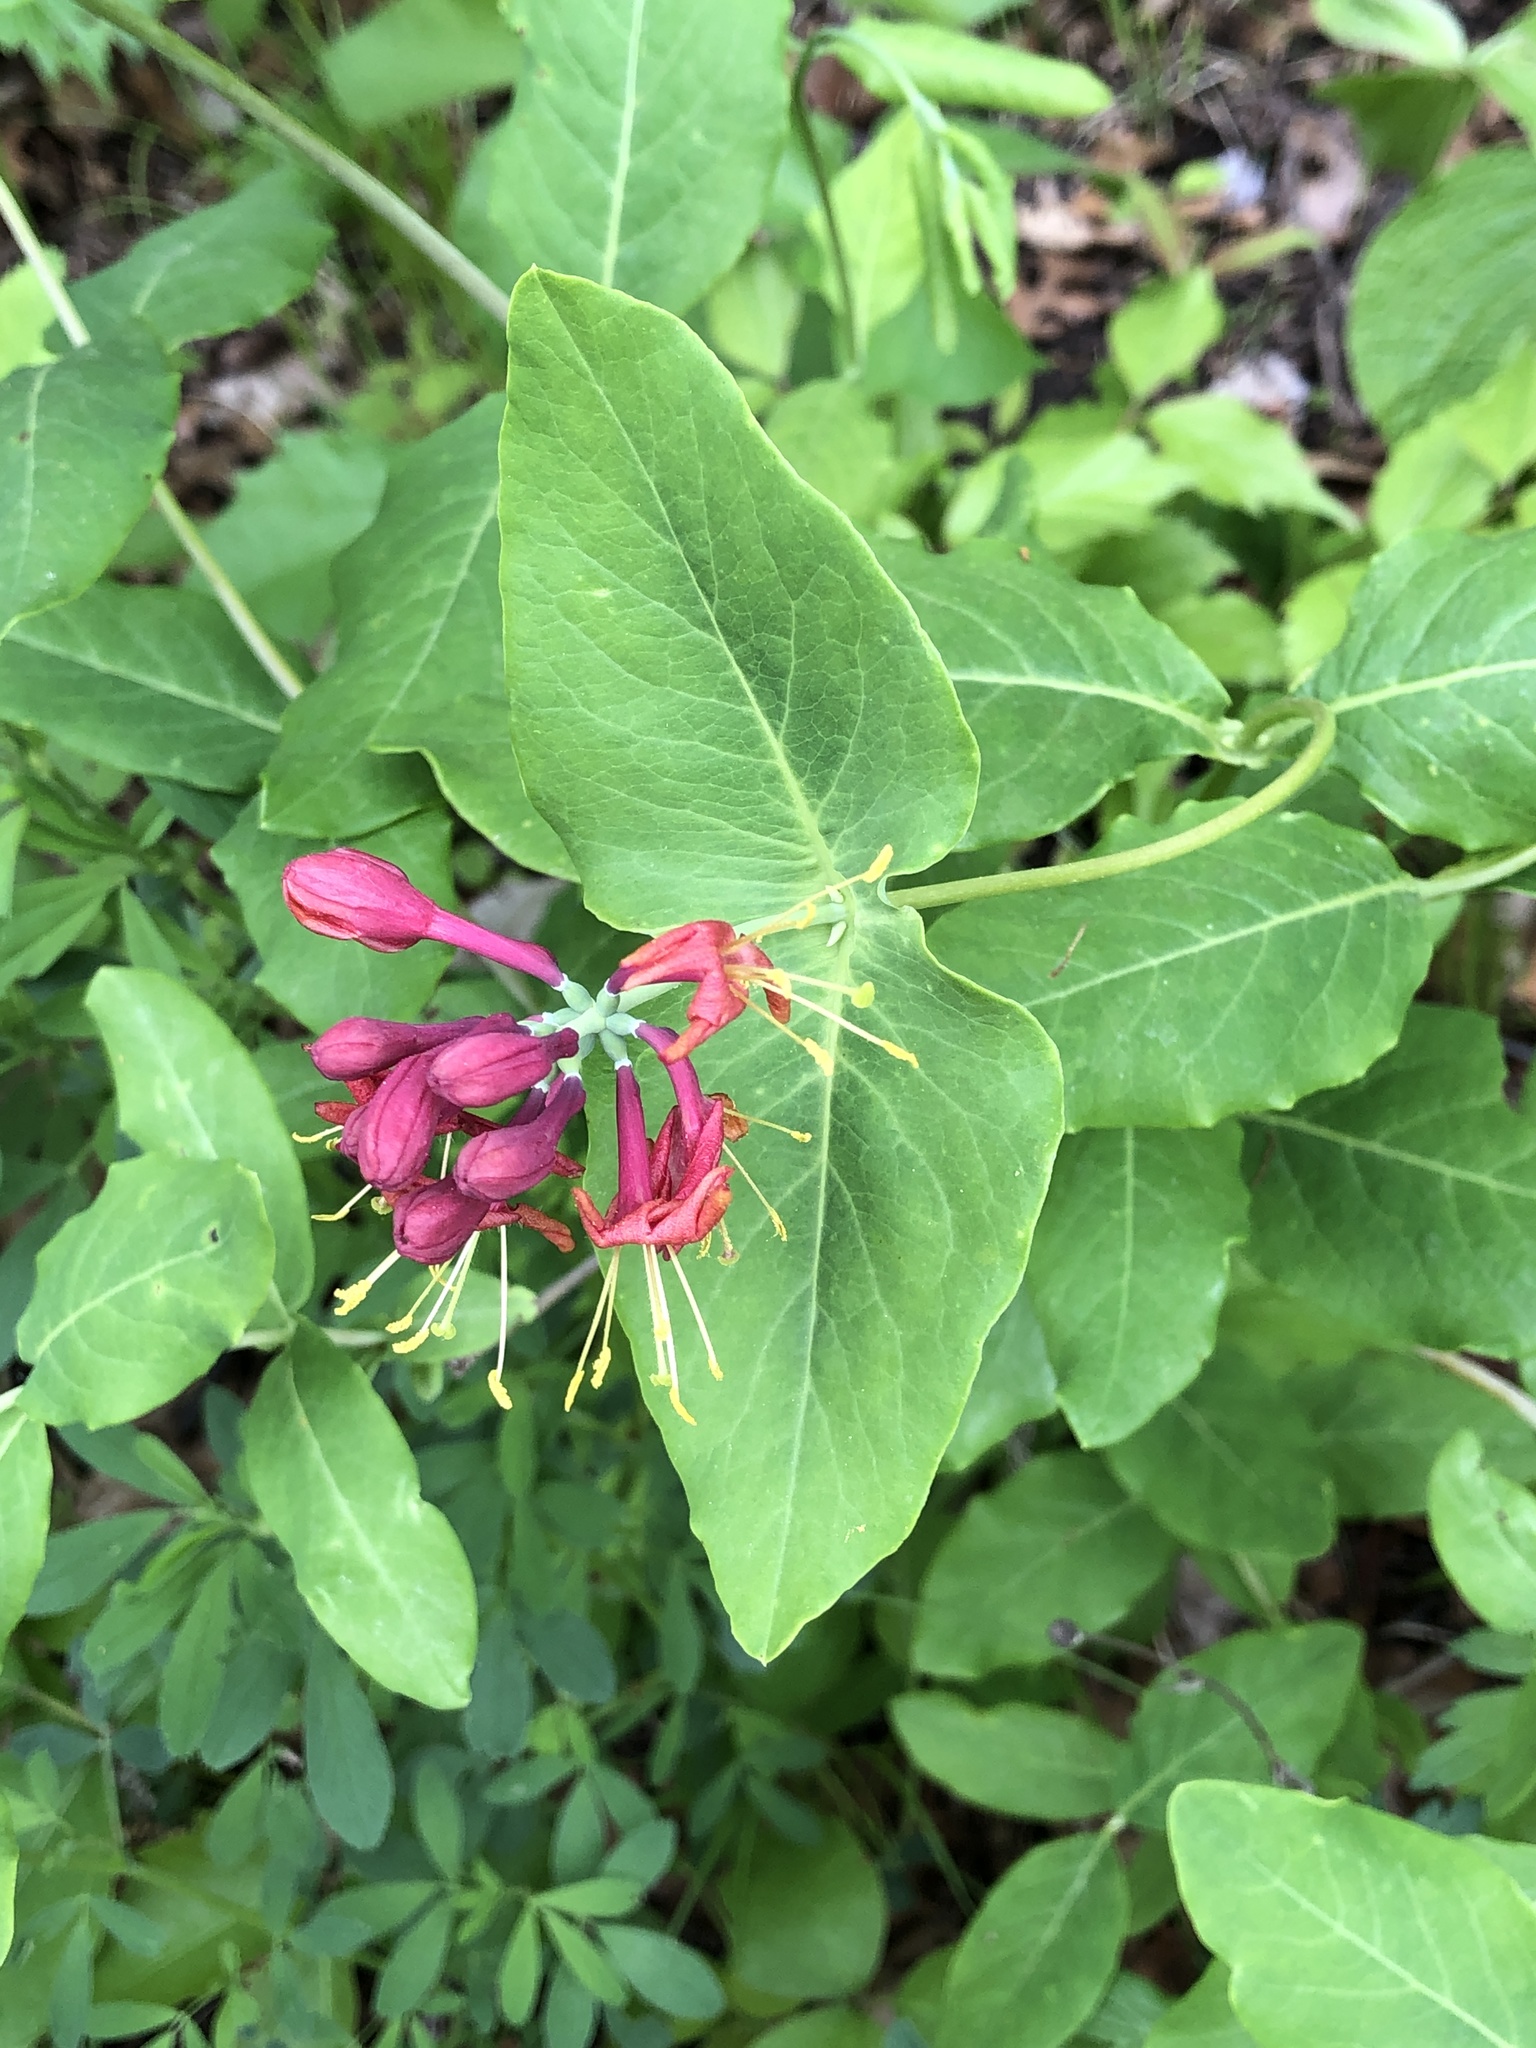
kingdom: Plantae
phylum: Tracheophyta
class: Magnoliopsida
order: Dipsacales
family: Caprifoliaceae
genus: Lonicera
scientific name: Lonicera dioica
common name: Limber honeysuckle
